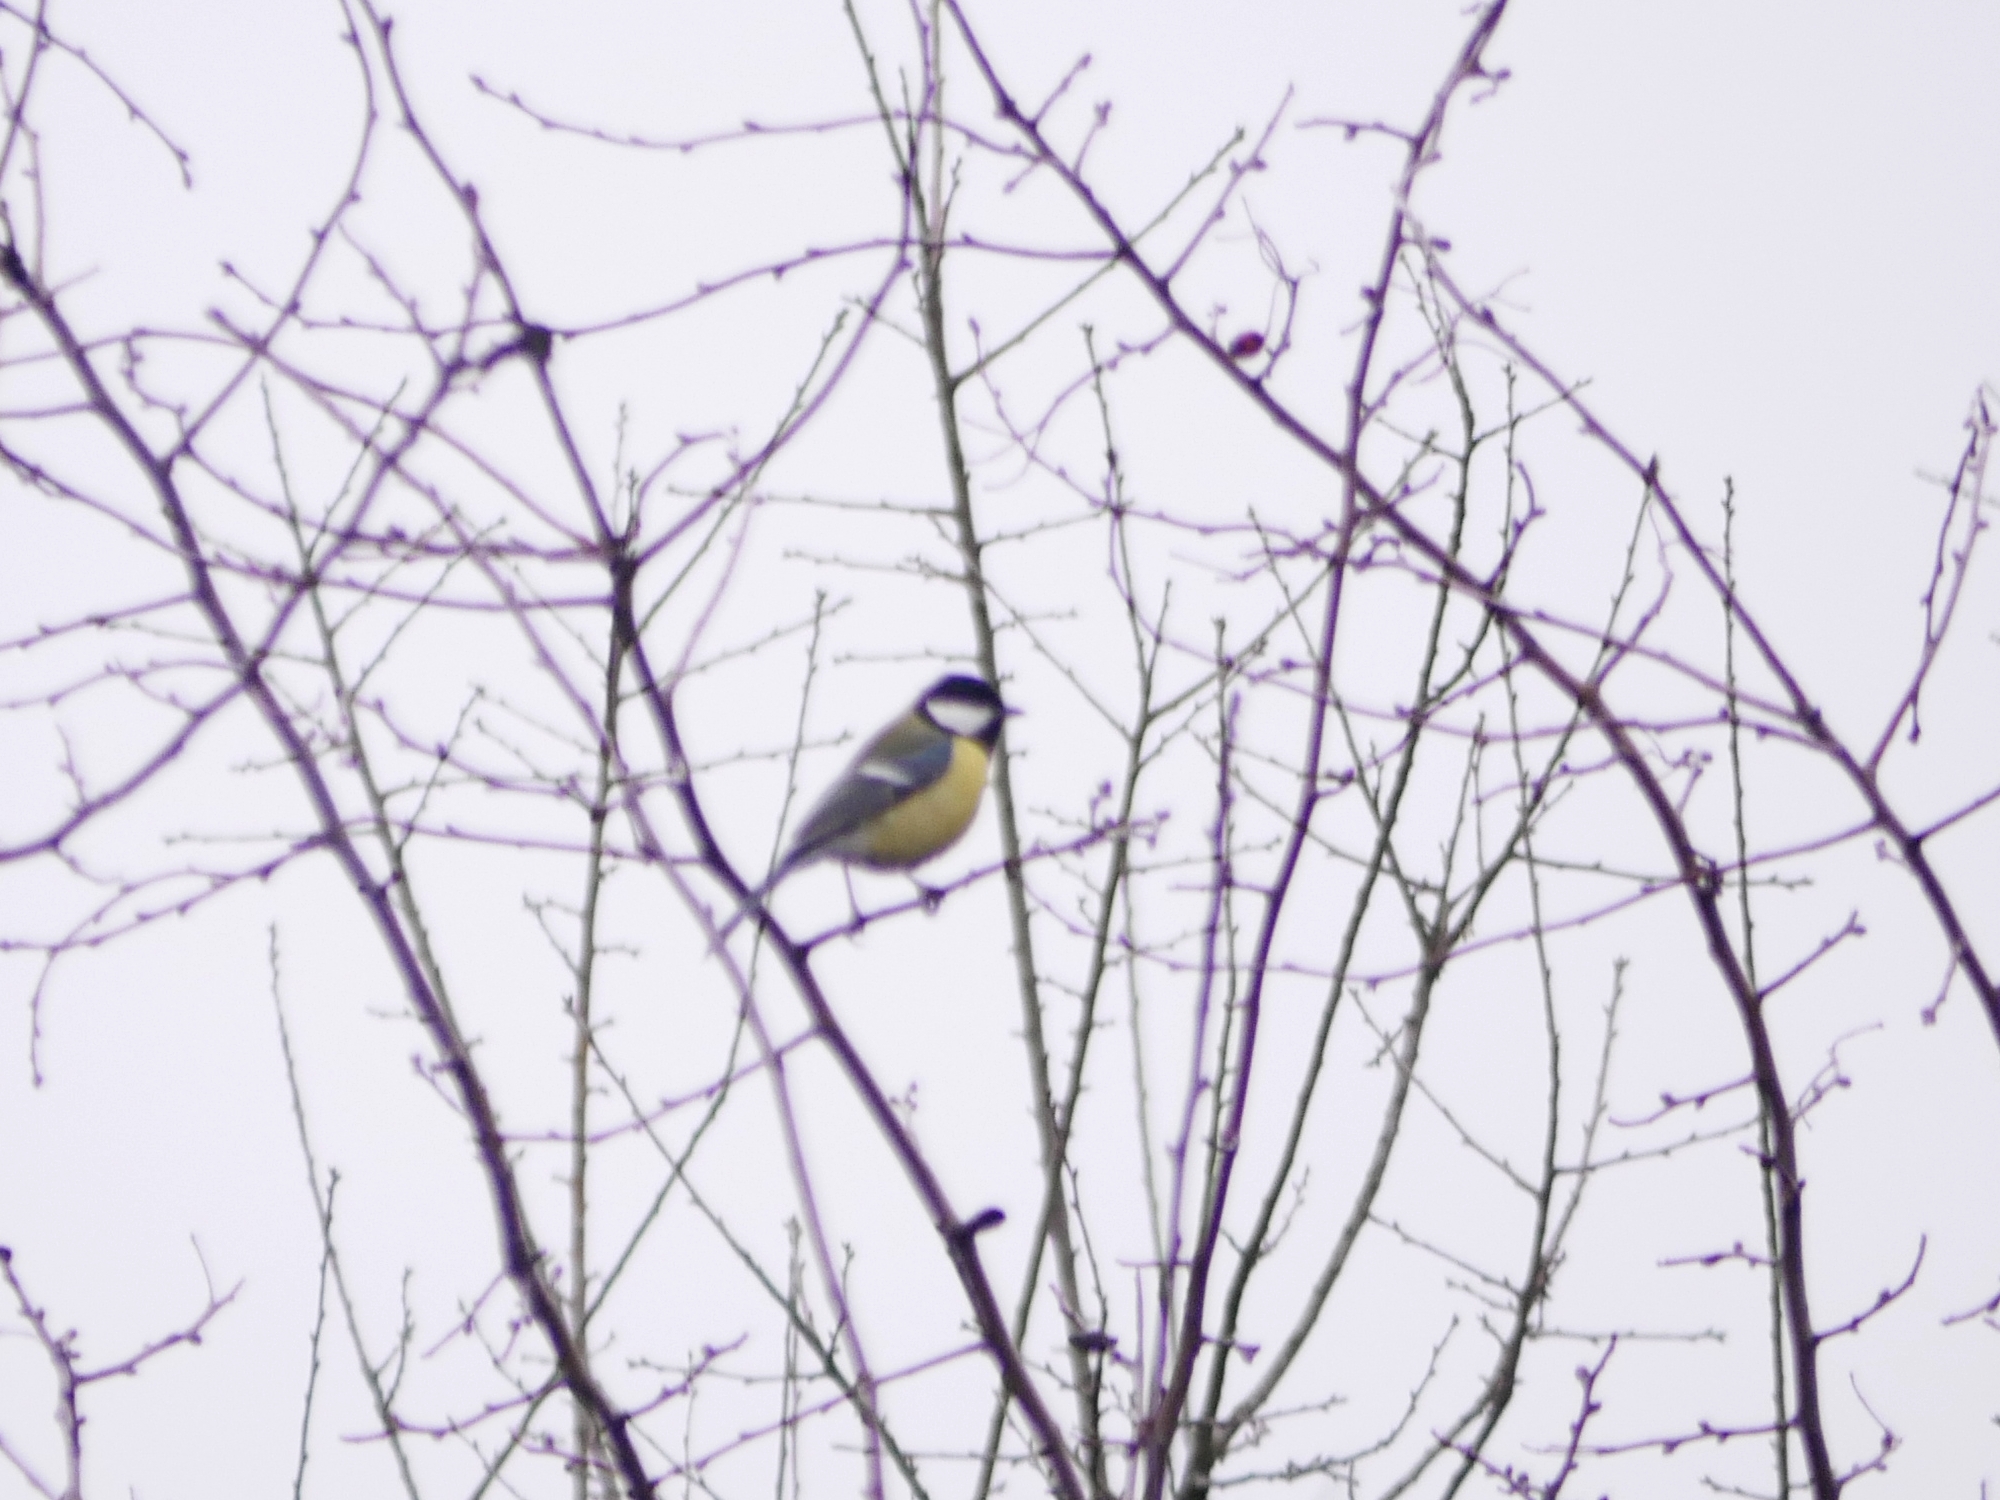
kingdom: Animalia
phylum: Chordata
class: Aves
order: Passeriformes
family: Paridae
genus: Parus
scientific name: Parus major
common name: Great tit
